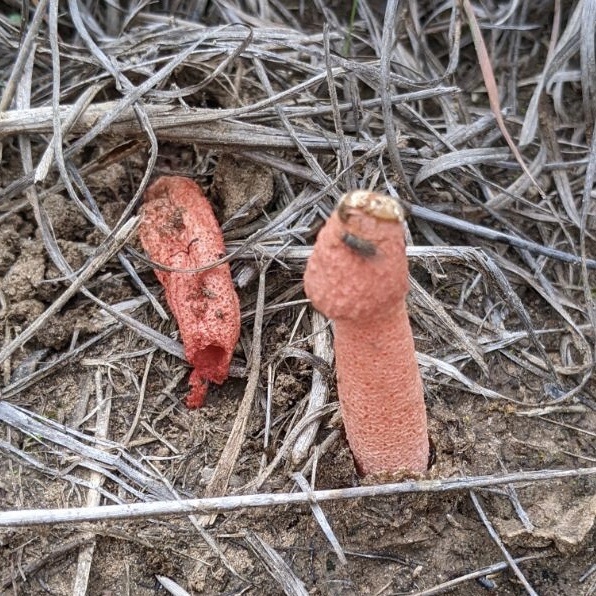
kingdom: Fungi
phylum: Basidiomycota
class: Agaricomycetes
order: Phallales
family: Phallaceae
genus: Phallus
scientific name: Phallus rubicundus
